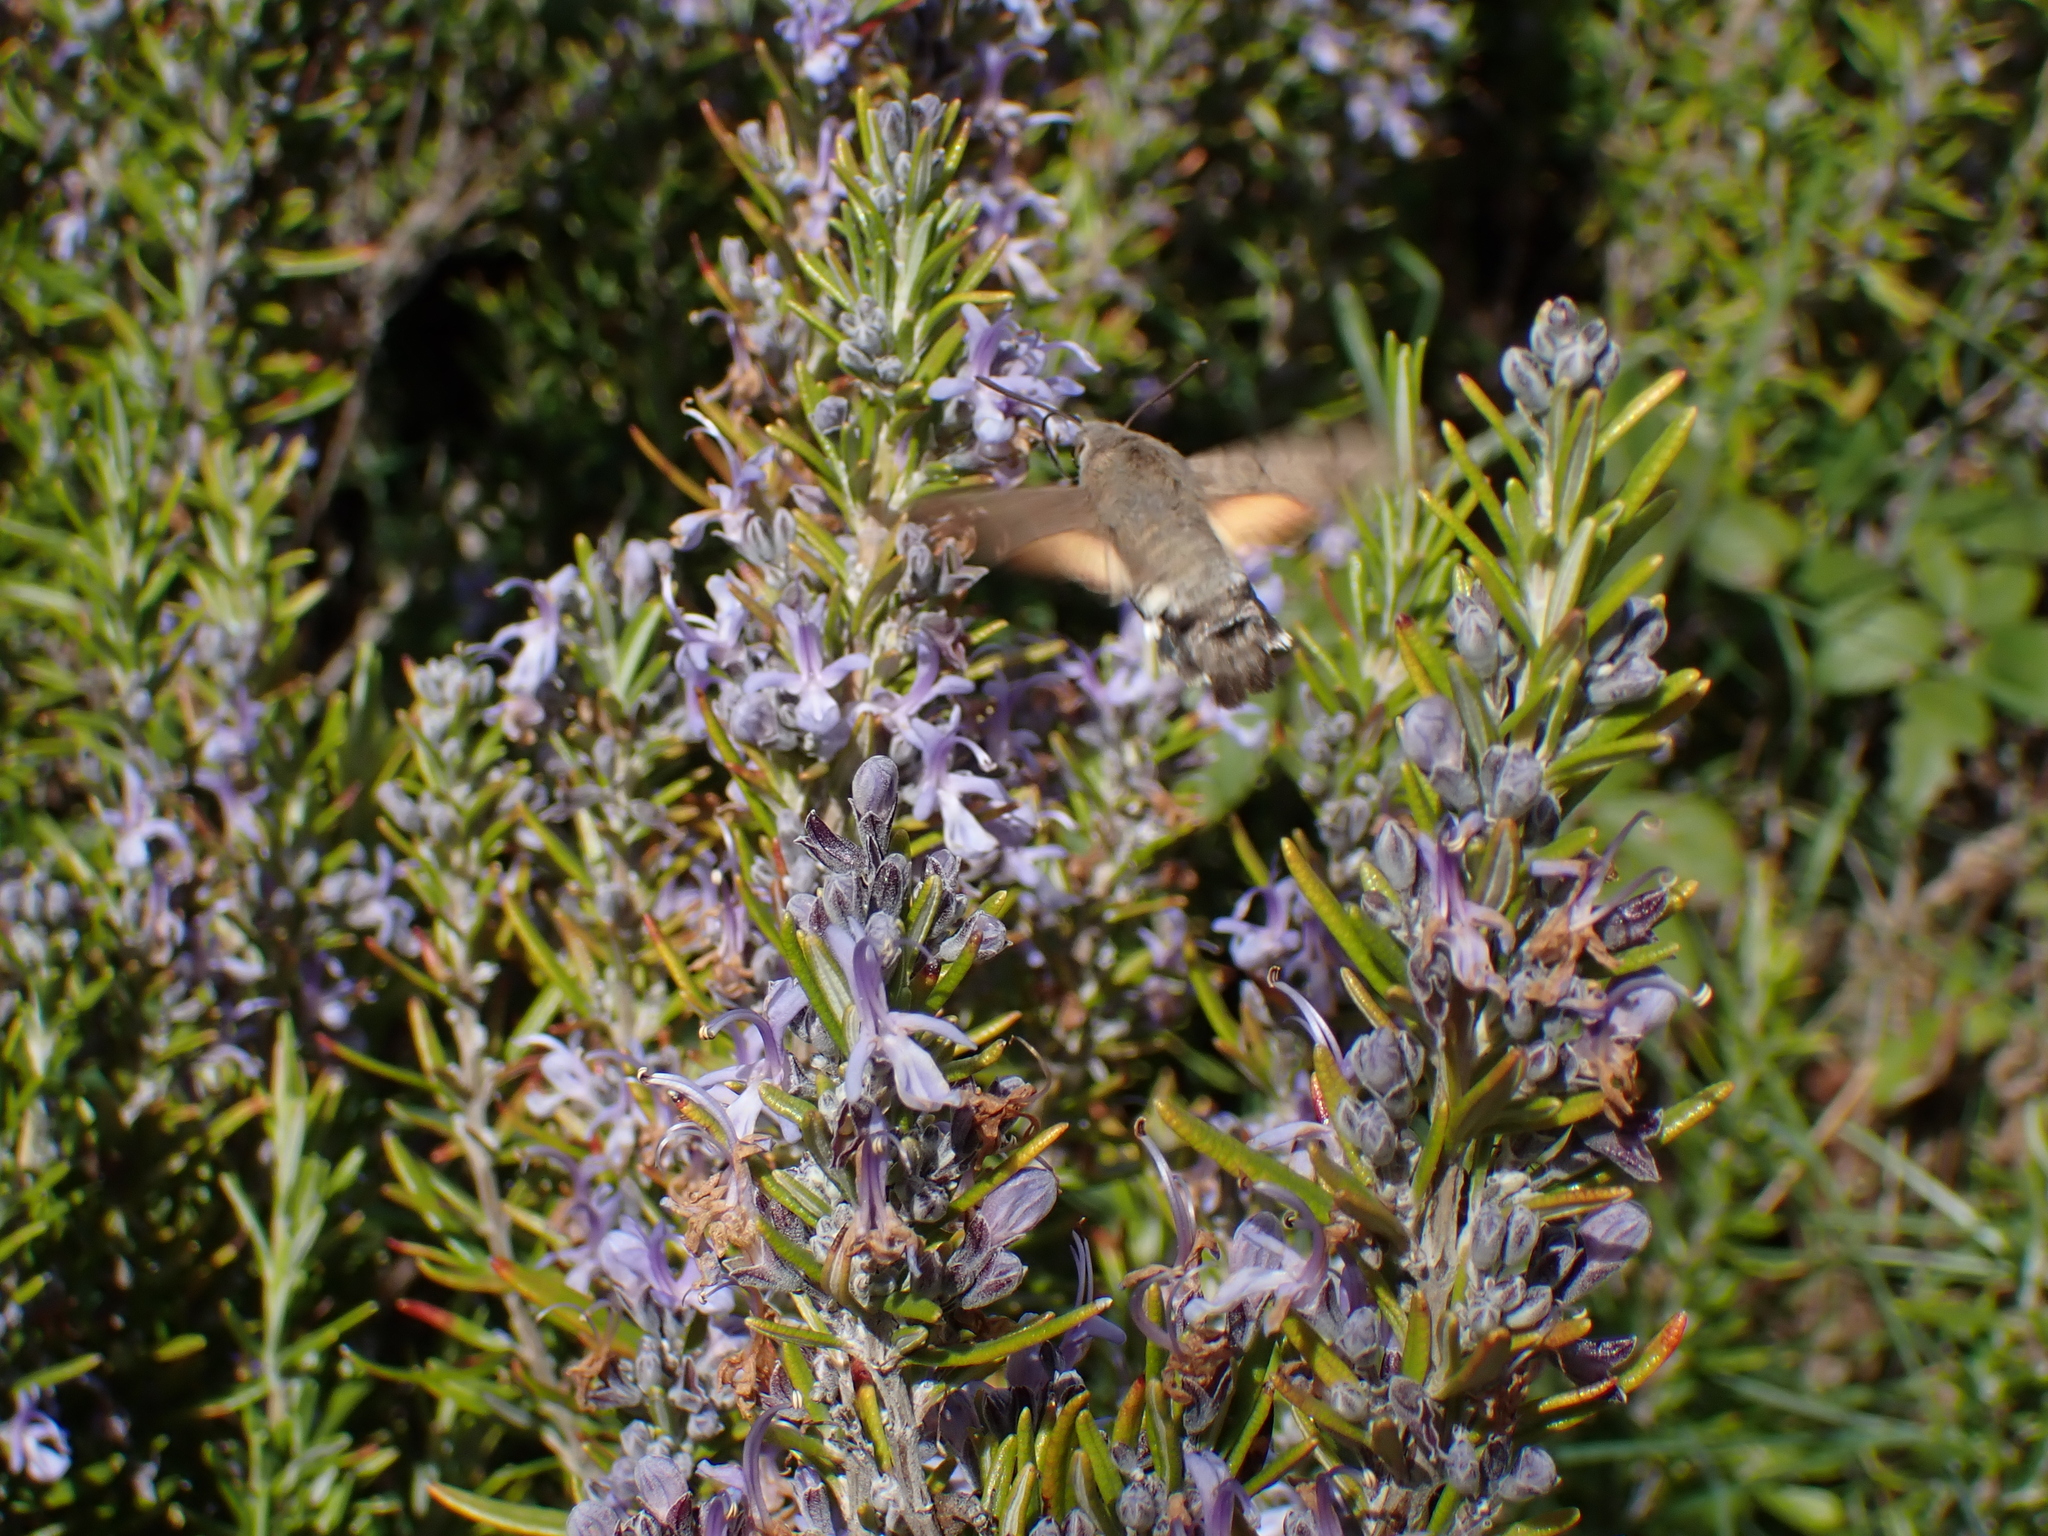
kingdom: Animalia
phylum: Arthropoda
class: Insecta
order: Lepidoptera
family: Sphingidae
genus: Macroglossum
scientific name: Macroglossum stellatarum
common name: Humming-bird hawk-moth
